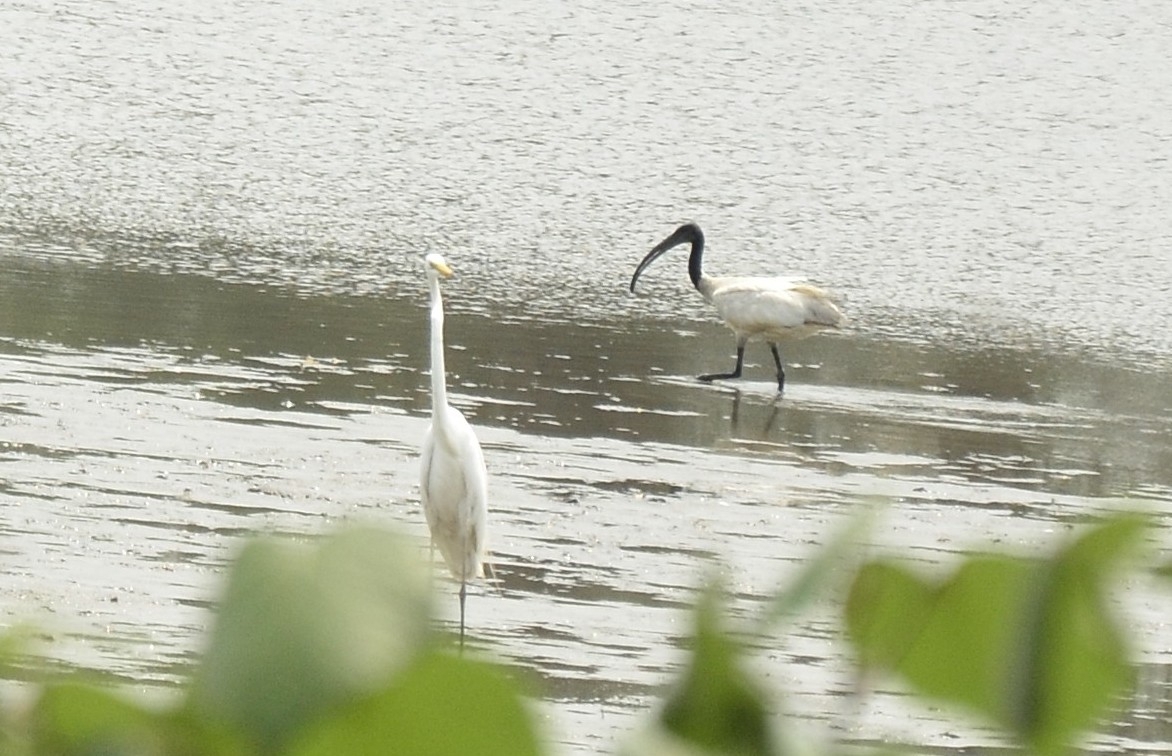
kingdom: Animalia
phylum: Chordata
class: Aves
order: Pelecaniformes
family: Threskiornithidae
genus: Threskiornis
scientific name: Threskiornis melanocephalus
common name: Black-headed ibis
